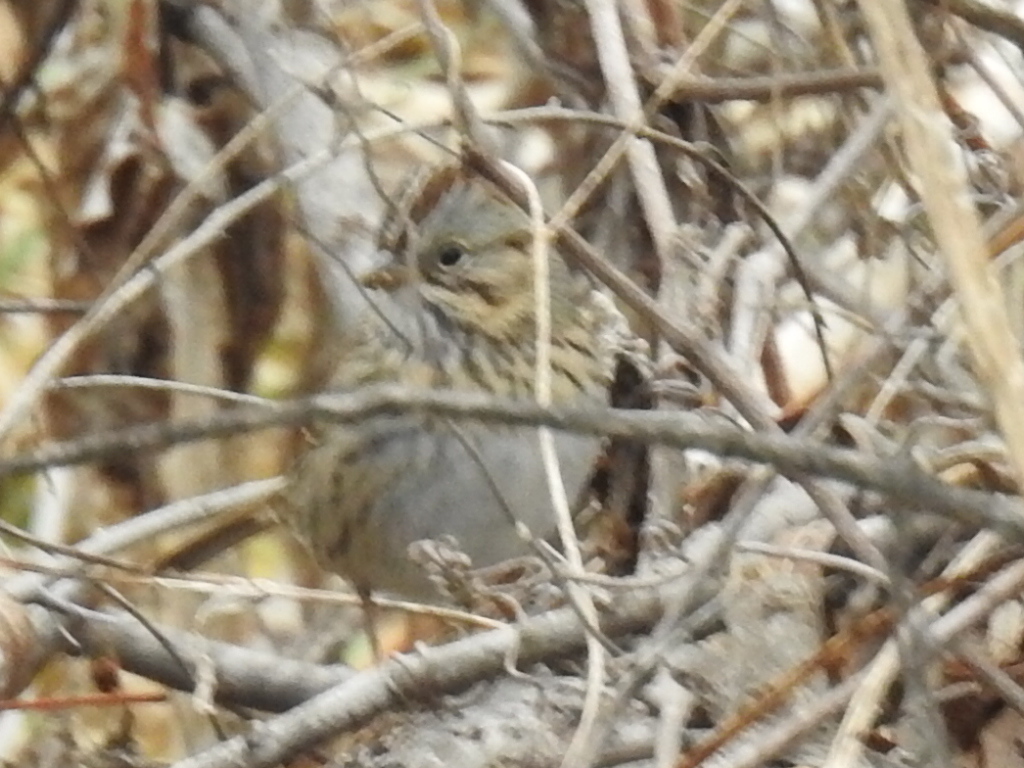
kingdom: Animalia
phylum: Chordata
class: Aves
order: Passeriformes
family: Passerellidae
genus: Melospiza
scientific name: Melospiza lincolnii
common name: Lincoln's sparrow
